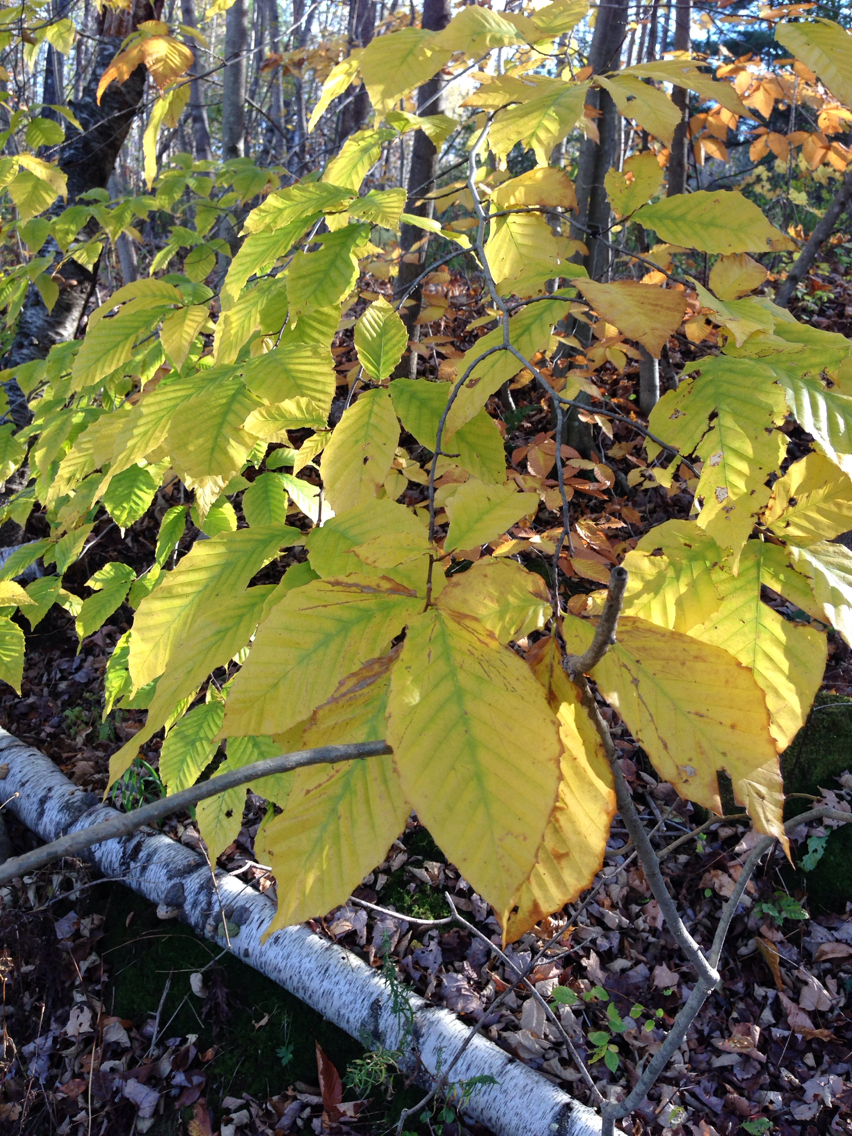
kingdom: Plantae
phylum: Tracheophyta
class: Magnoliopsida
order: Fagales
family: Fagaceae
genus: Fagus
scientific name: Fagus grandifolia
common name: American beech
